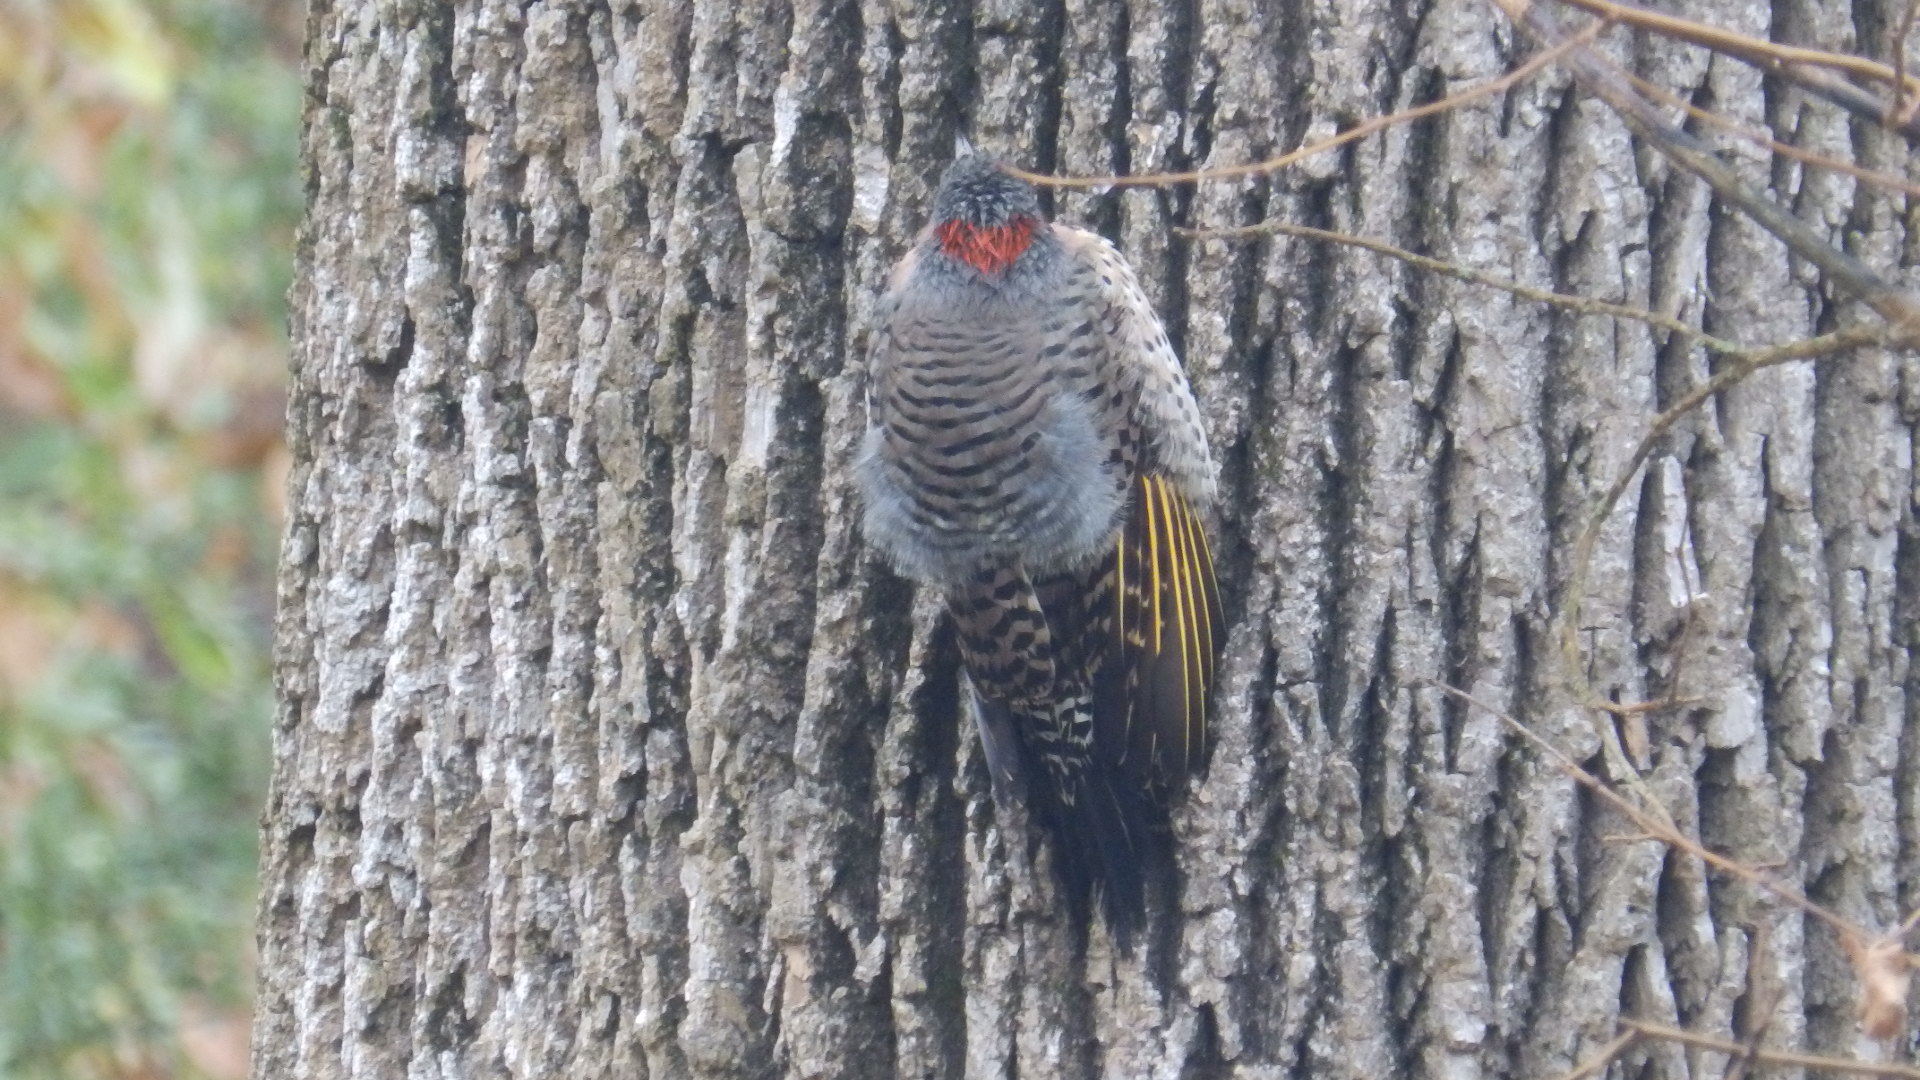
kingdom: Animalia
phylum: Chordata
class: Aves
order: Piciformes
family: Picidae
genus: Colaptes
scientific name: Colaptes auratus
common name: Northern flicker
